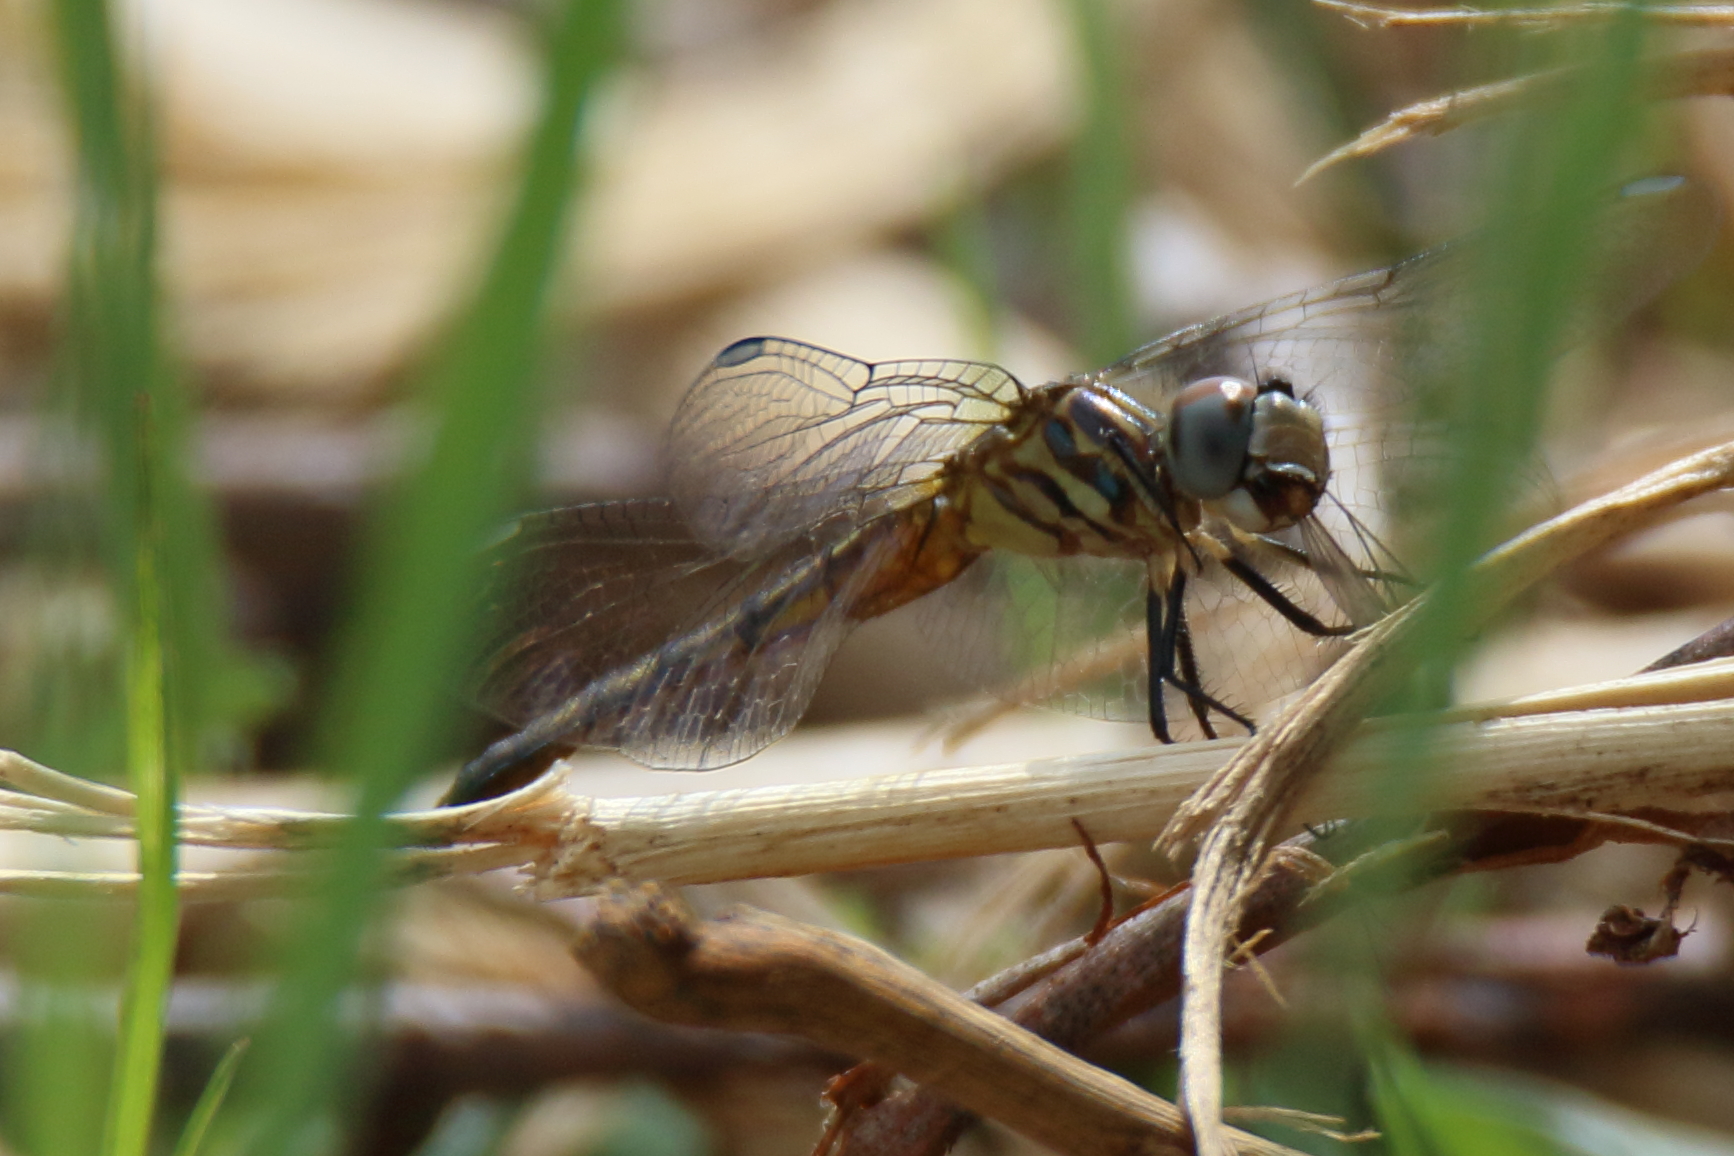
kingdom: Animalia
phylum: Arthropoda
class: Insecta
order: Odonata
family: Libellulidae
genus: Pachydiplax
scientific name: Pachydiplax longipennis
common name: Blue dasher
